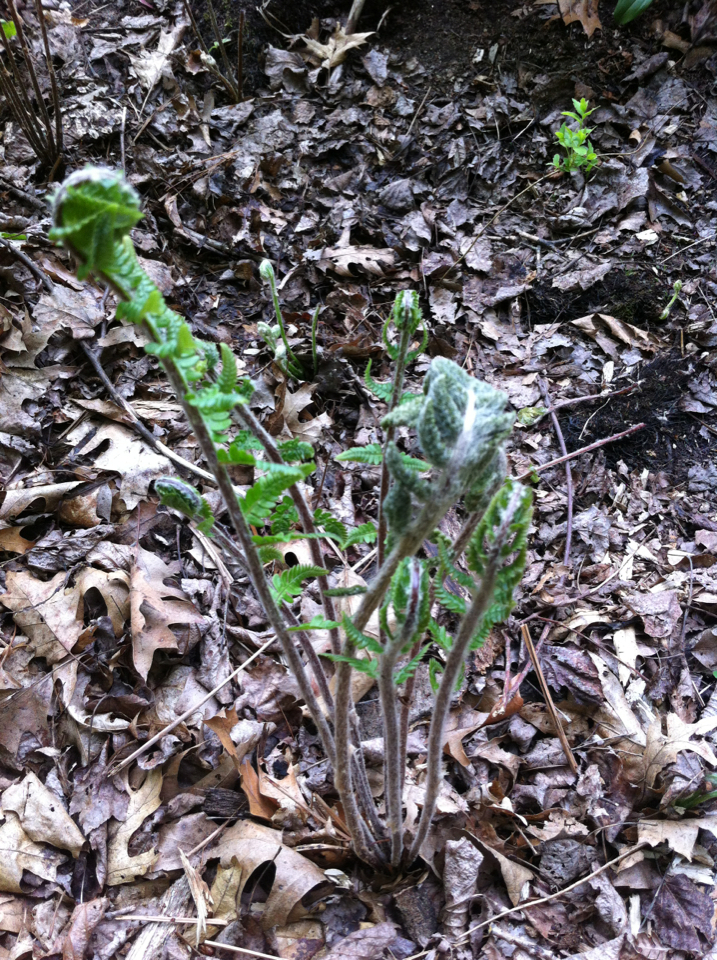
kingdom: Plantae
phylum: Tracheophyta
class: Polypodiopsida
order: Osmundales
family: Osmundaceae
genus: Osmundastrum
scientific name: Osmundastrum cinnamomeum
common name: Cinnamon fern
